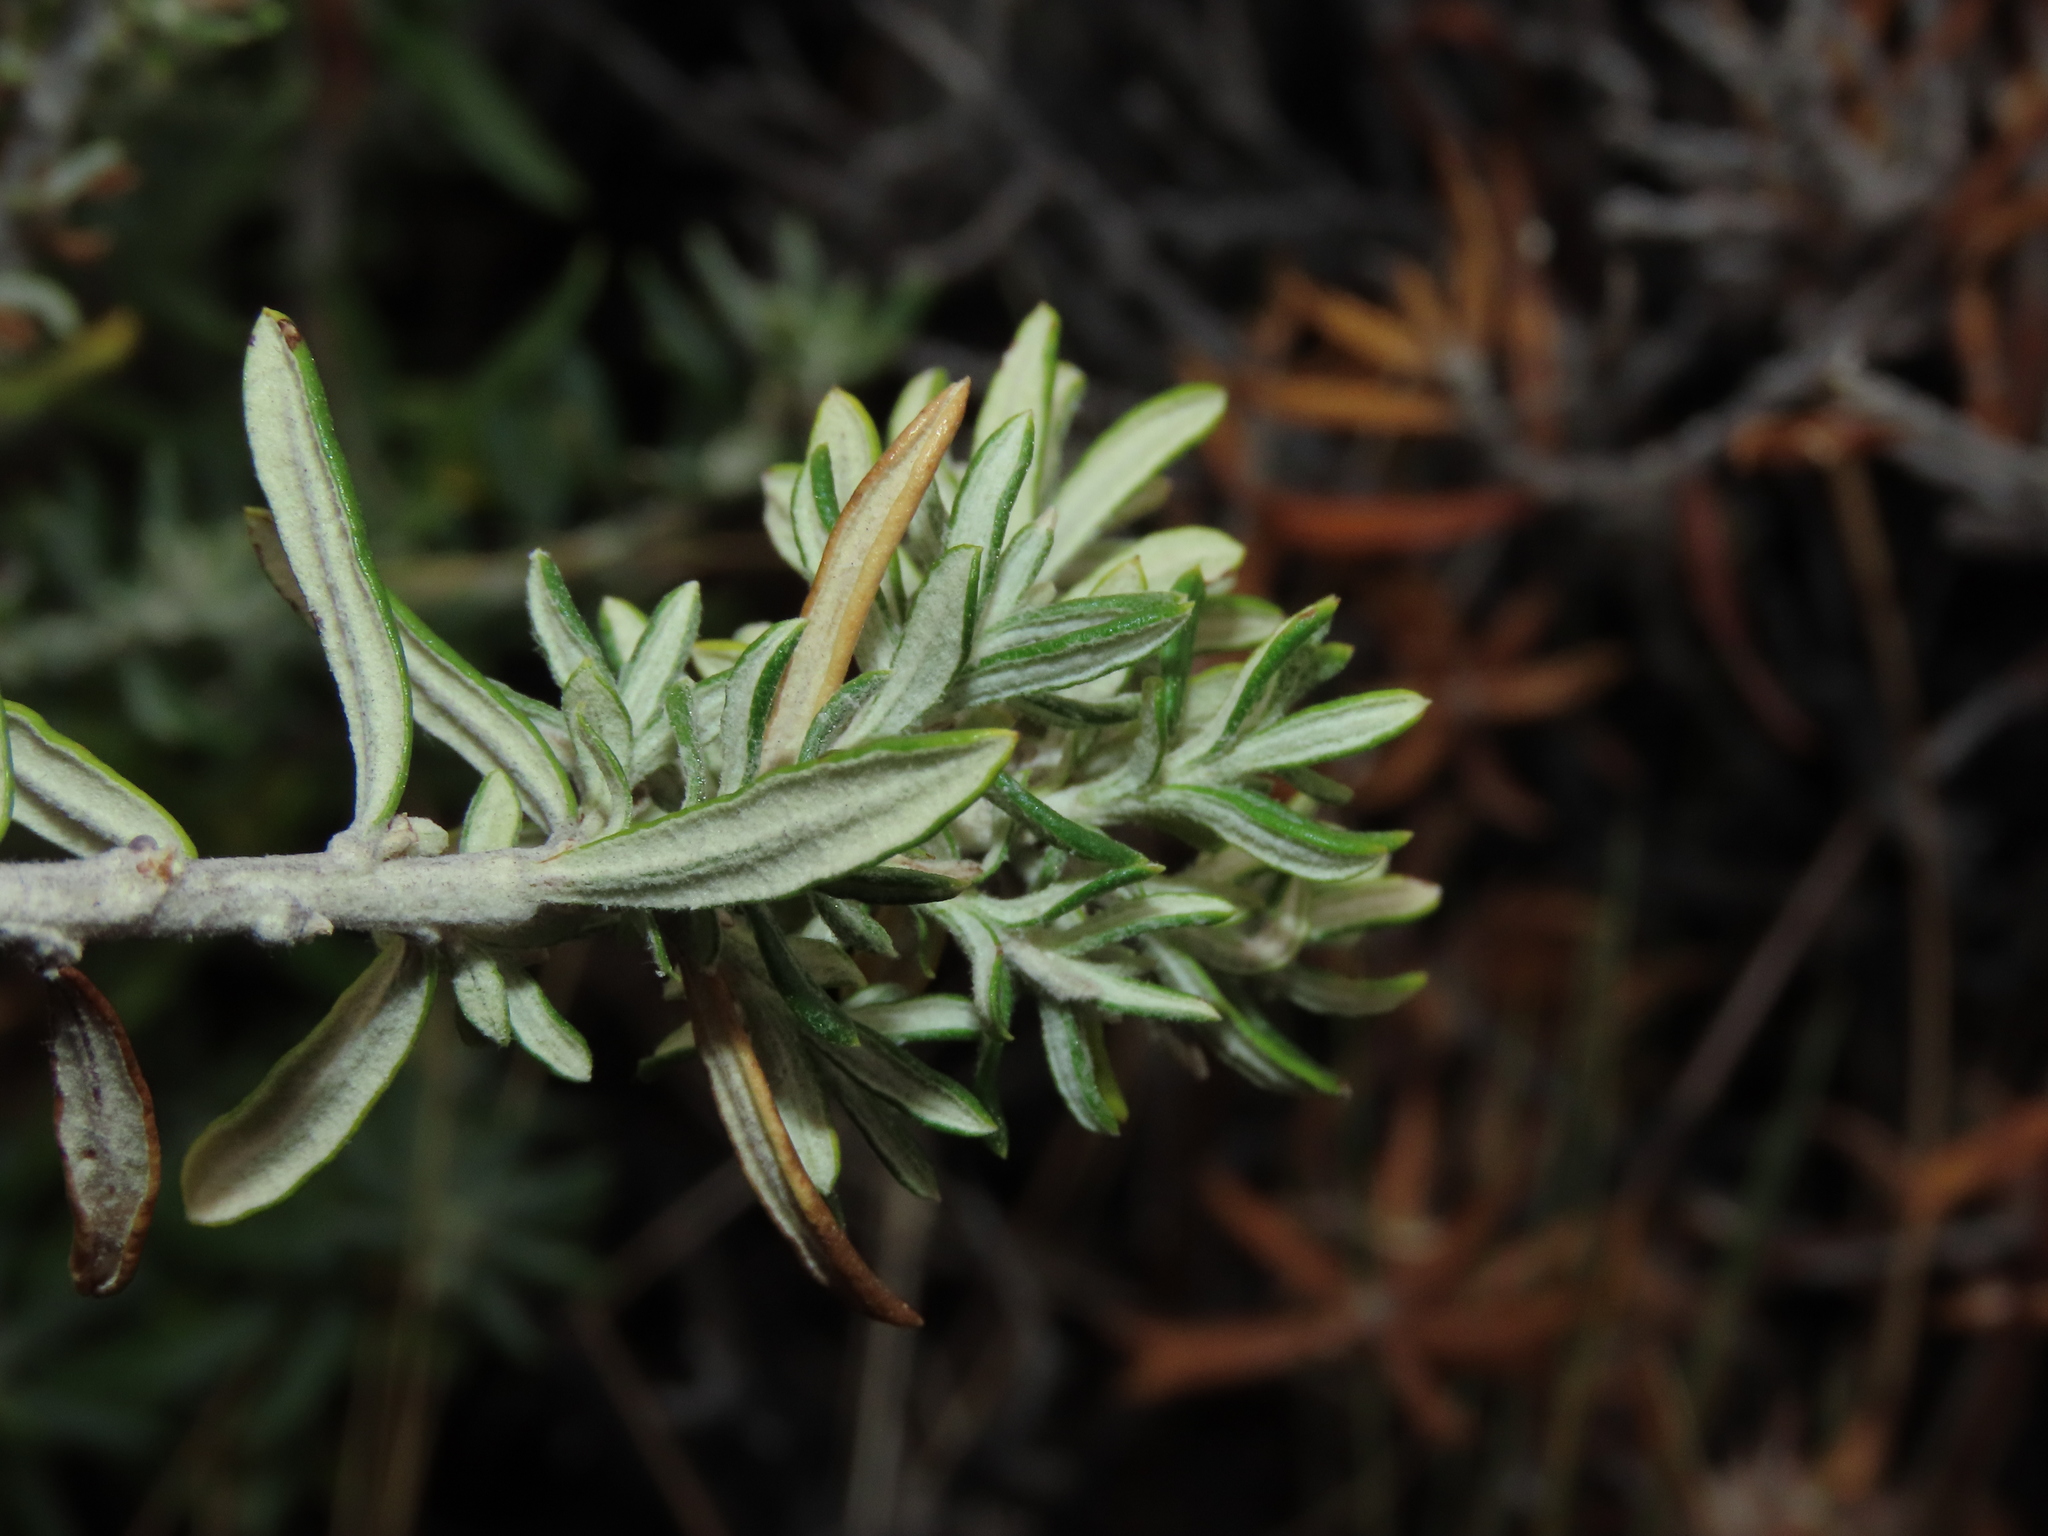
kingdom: Plantae
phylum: Tracheophyta
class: Magnoliopsida
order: Asterales
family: Asteraceae
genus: Chiliotrichum
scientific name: Chiliotrichum diffusum
